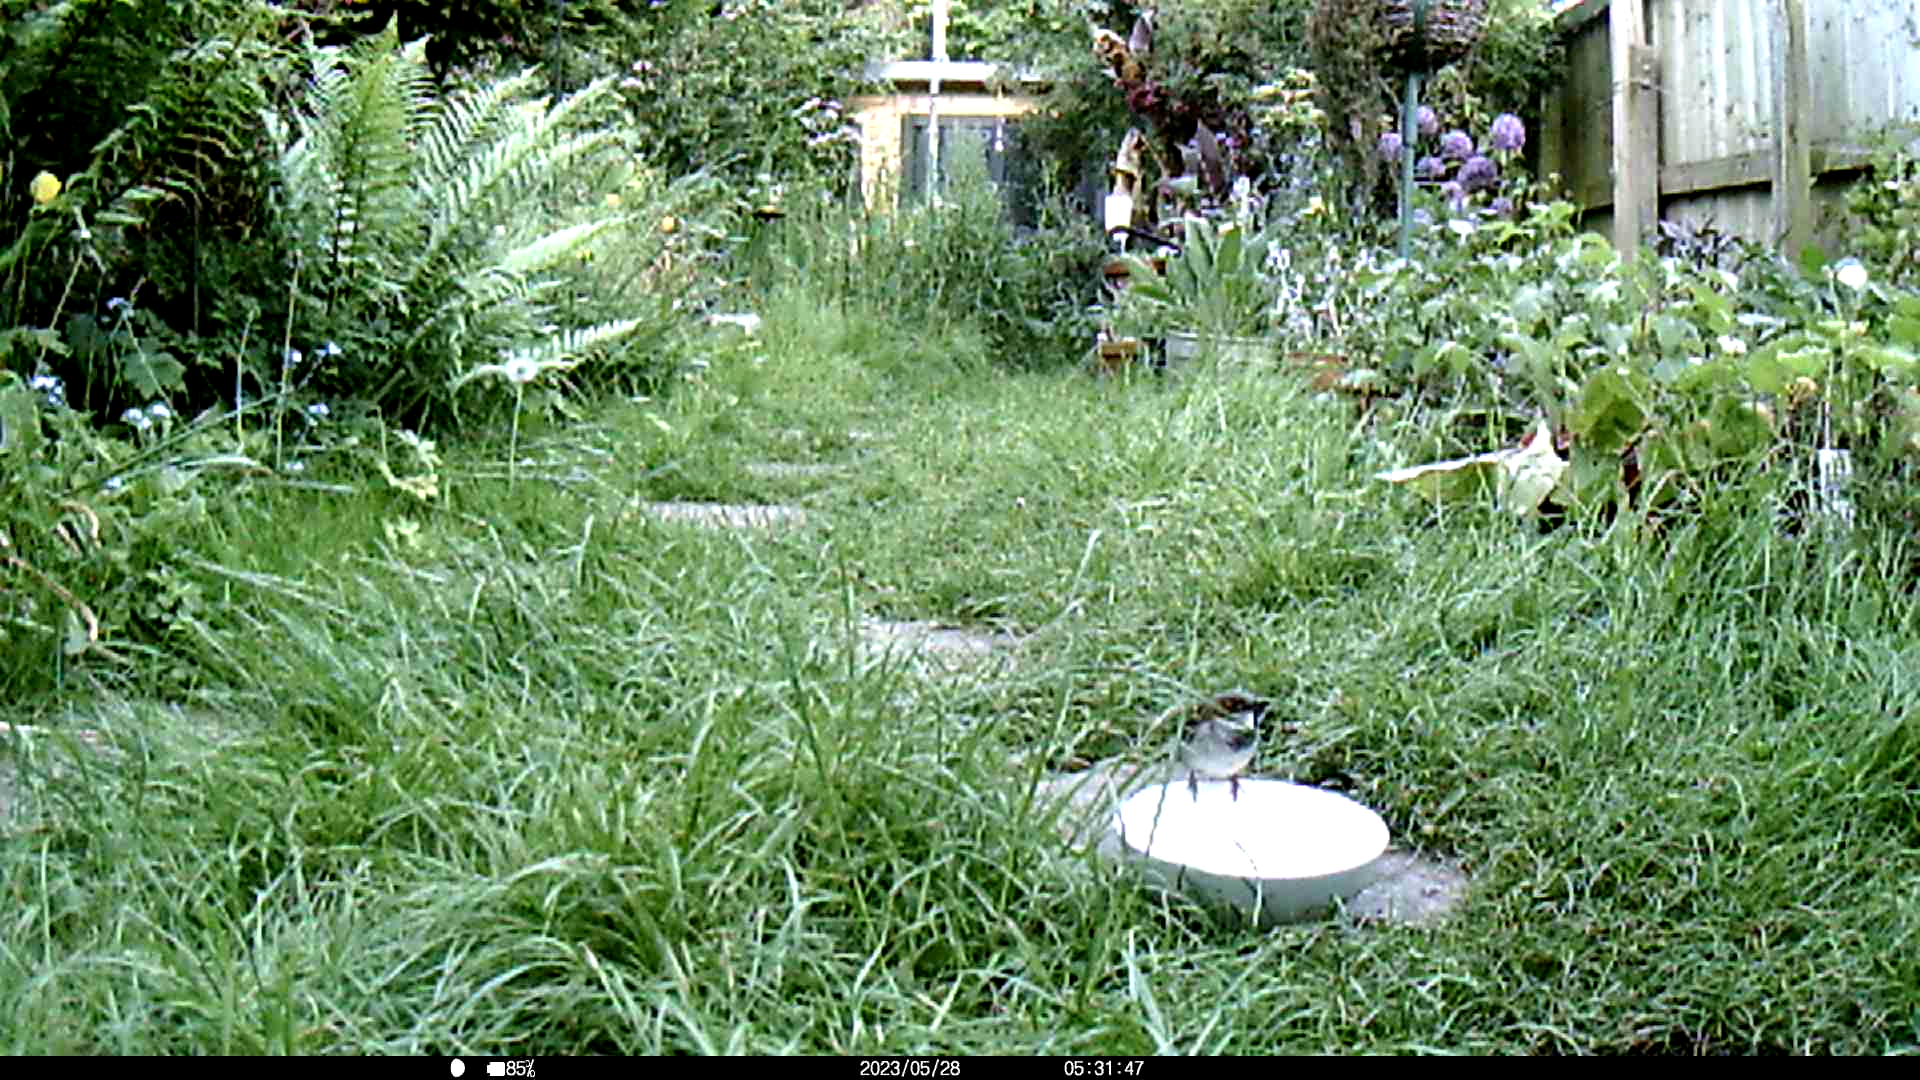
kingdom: Animalia
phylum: Chordata
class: Aves
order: Passeriformes
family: Passeridae
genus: Passer
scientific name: Passer domesticus
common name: House sparrow
